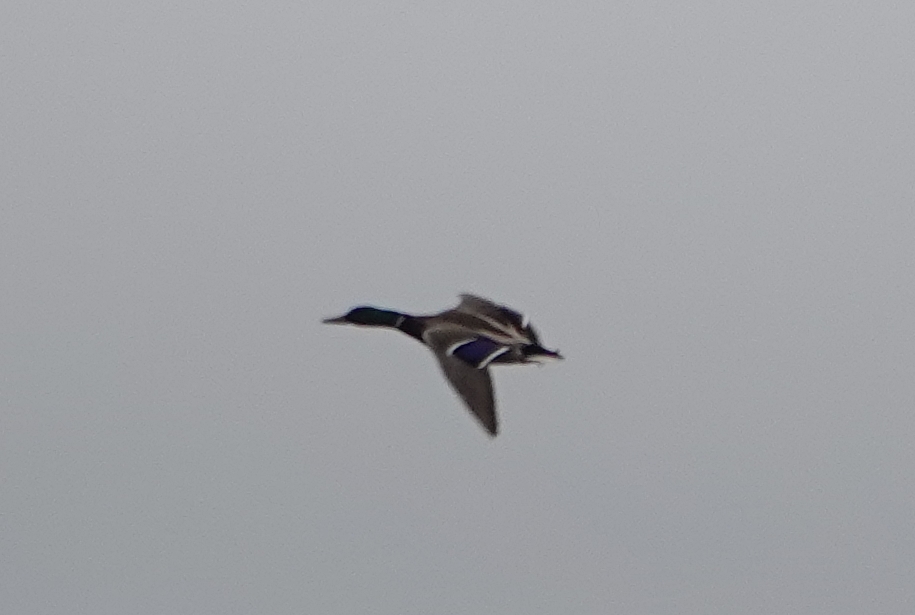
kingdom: Animalia
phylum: Chordata
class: Aves
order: Anseriformes
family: Anatidae
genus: Anas
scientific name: Anas platyrhynchos
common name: Mallard
